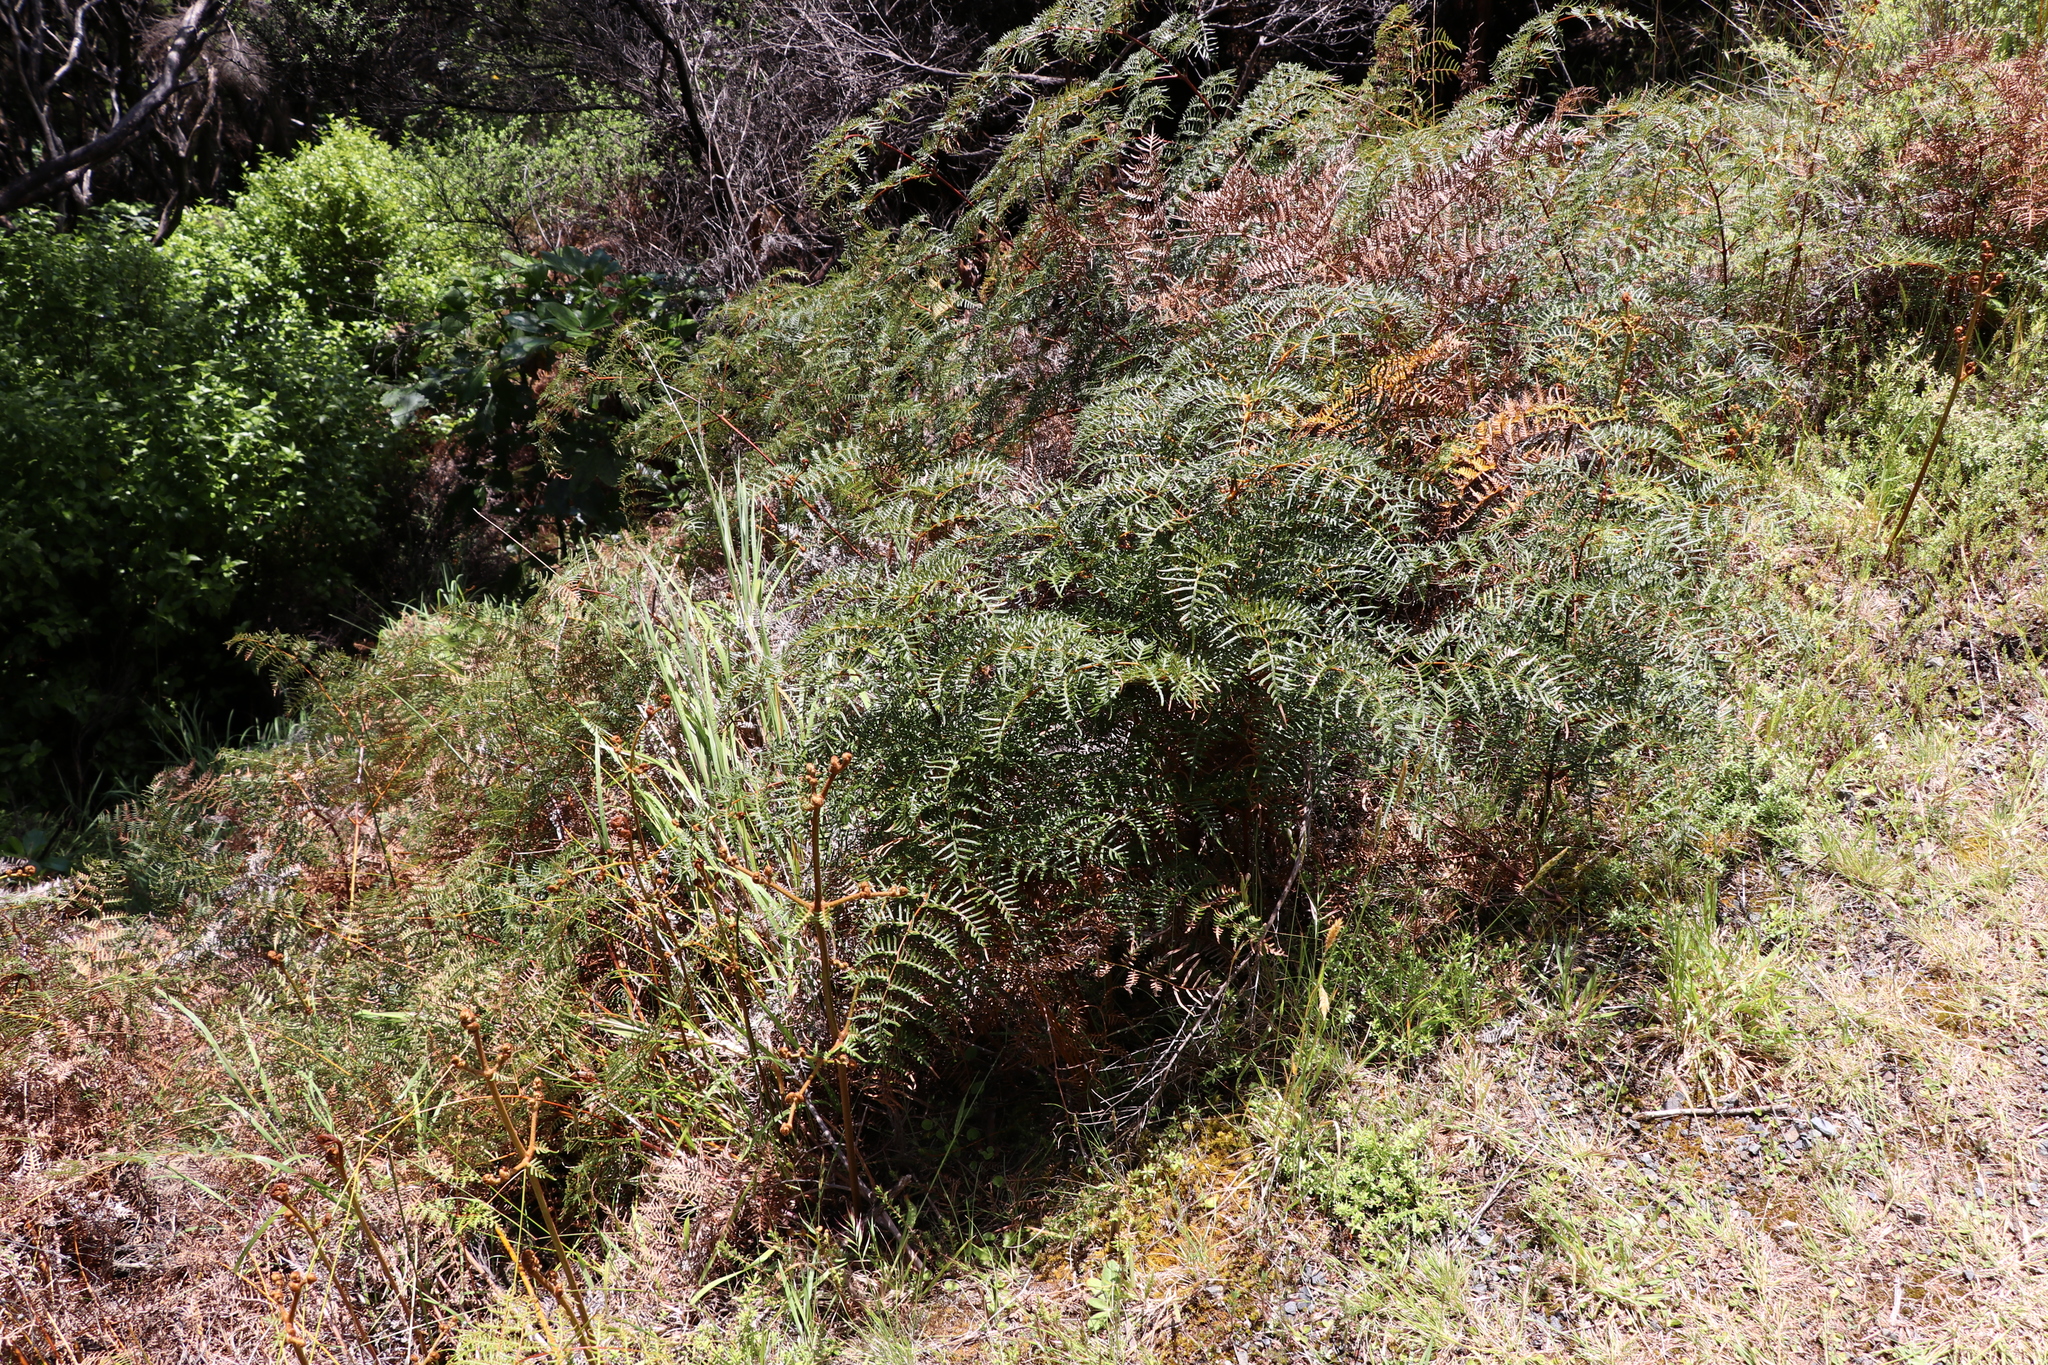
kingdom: Plantae
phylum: Tracheophyta
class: Polypodiopsida
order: Polypodiales
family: Dennstaedtiaceae
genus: Pteridium
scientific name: Pteridium esculentum
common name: Bracken fern
